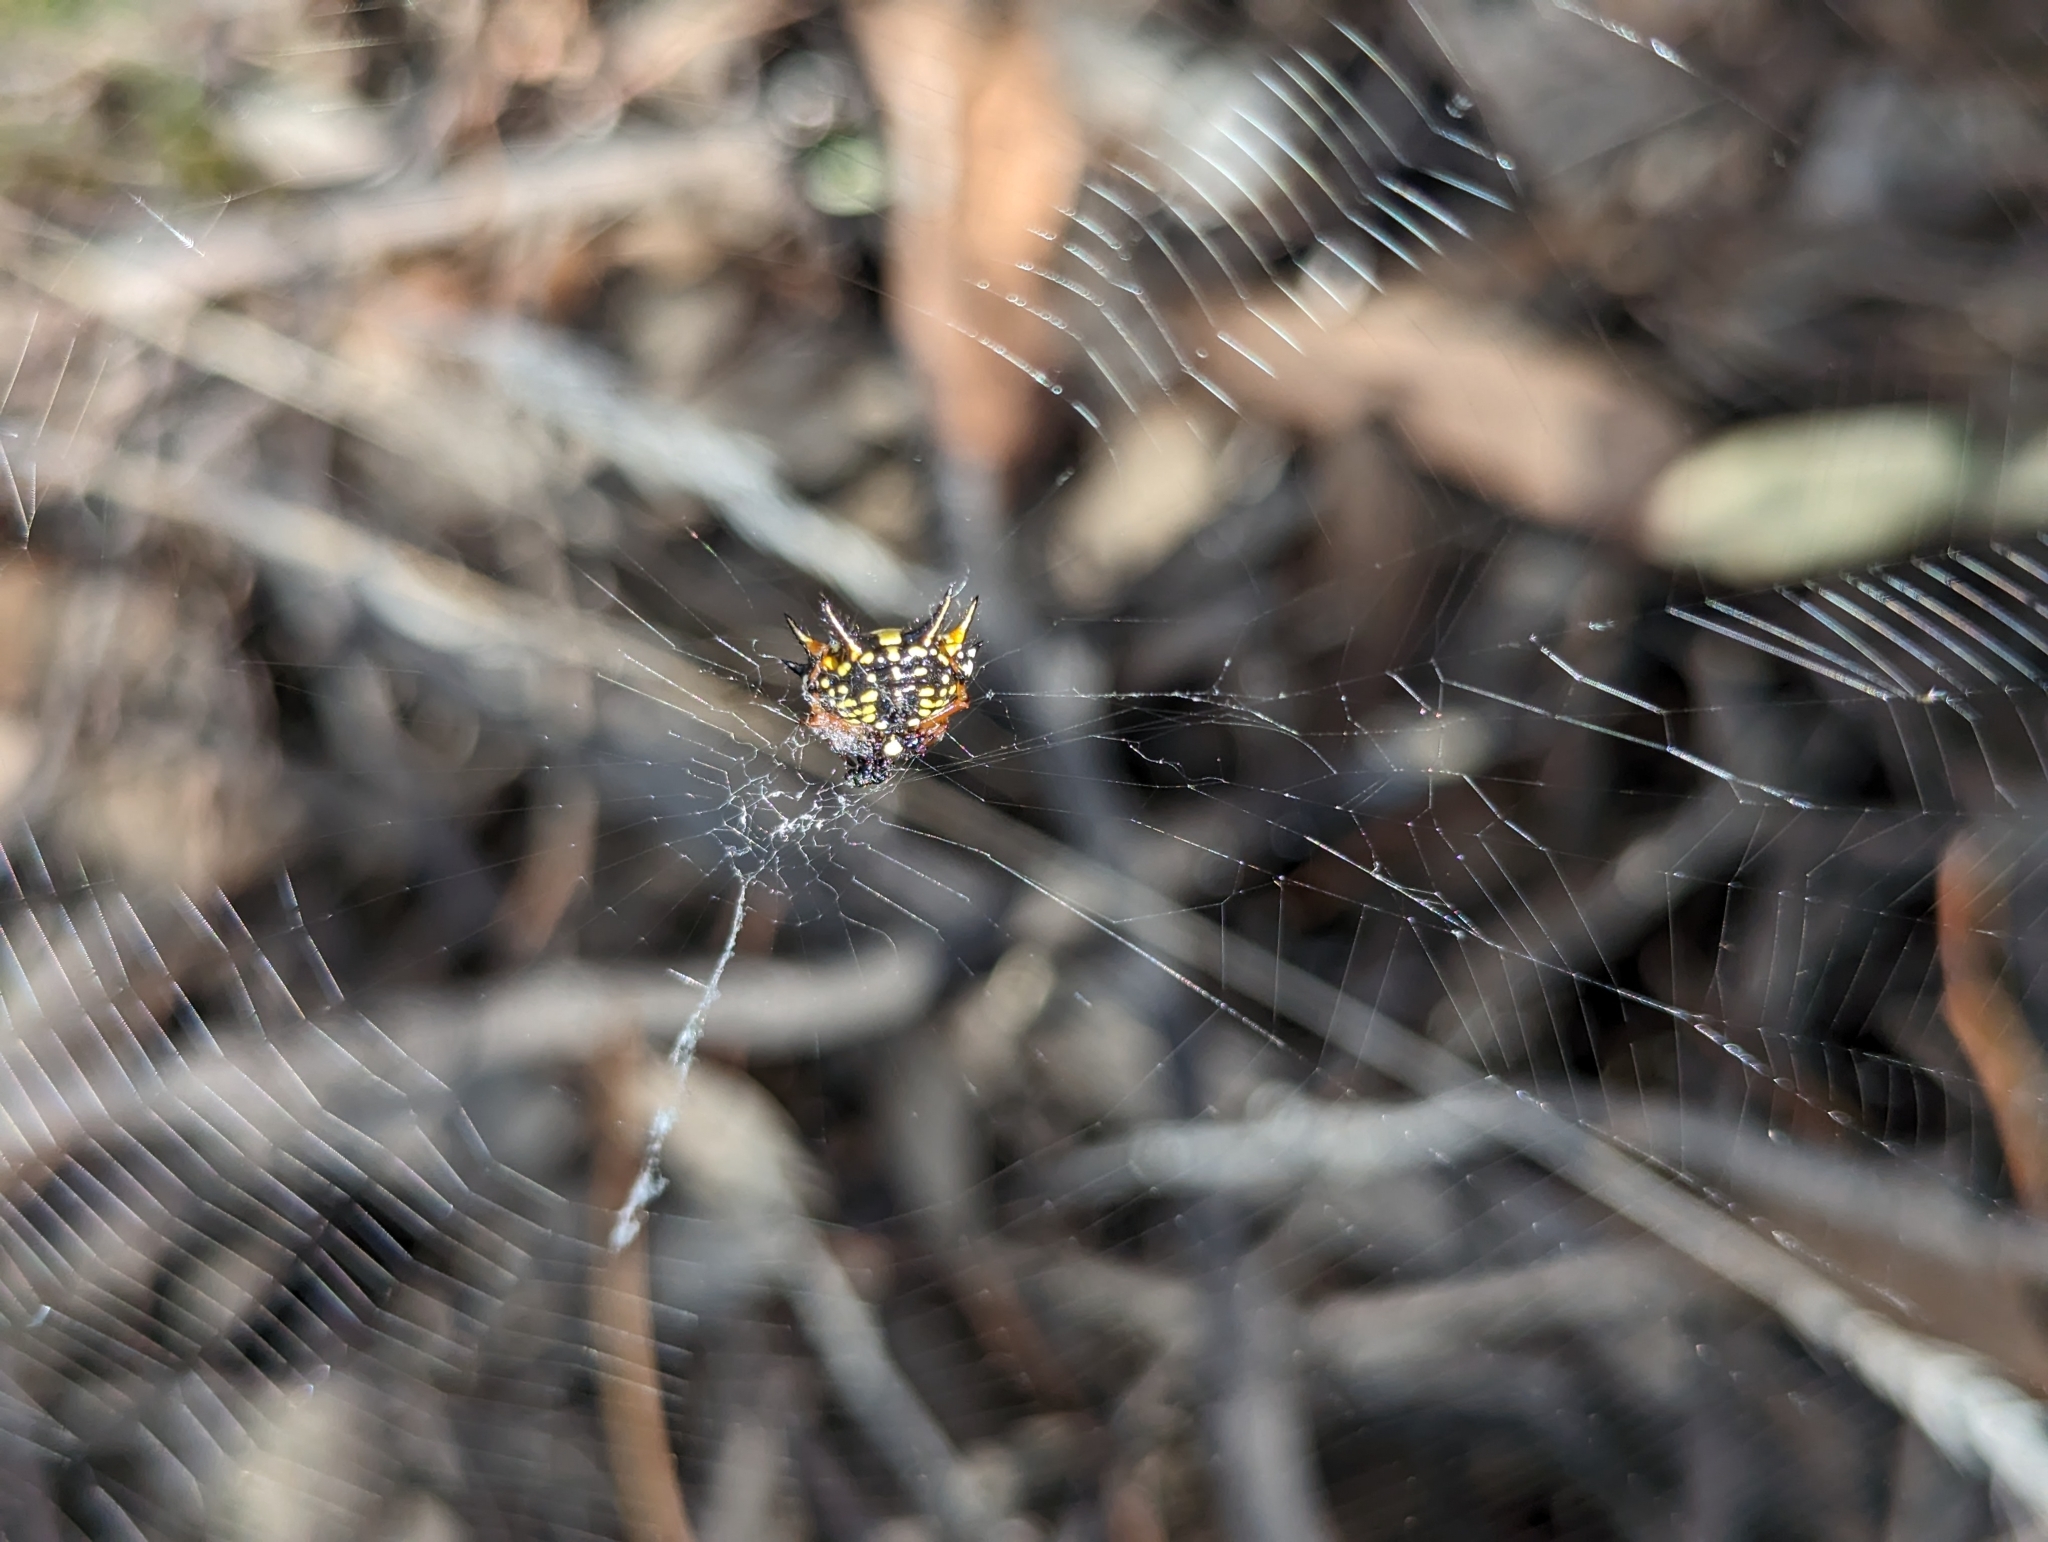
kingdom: Animalia
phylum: Arthropoda
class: Arachnida
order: Araneae
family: Araneidae
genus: Austracantha
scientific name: Austracantha minax
